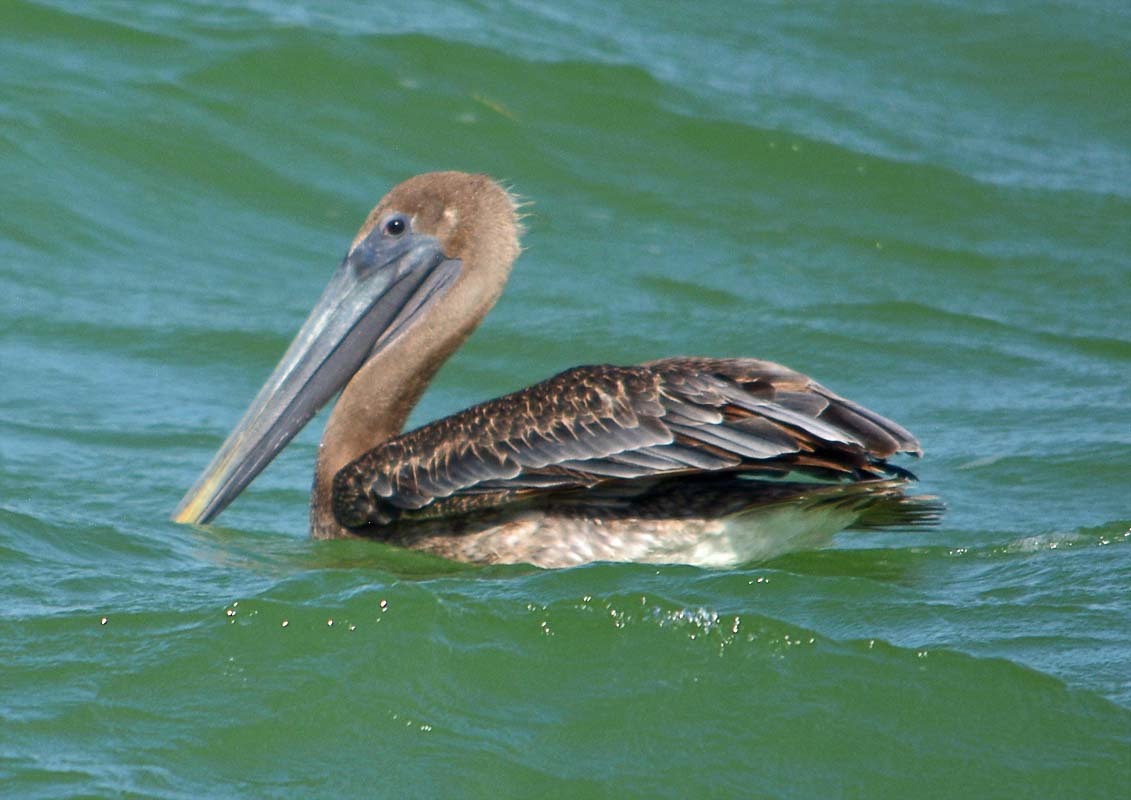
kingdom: Animalia
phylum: Chordata
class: Aves
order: Pelecaniformes
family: Pelecanidae
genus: Pelecanus
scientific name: Pelecanus occidentalis
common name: Brown pelican
